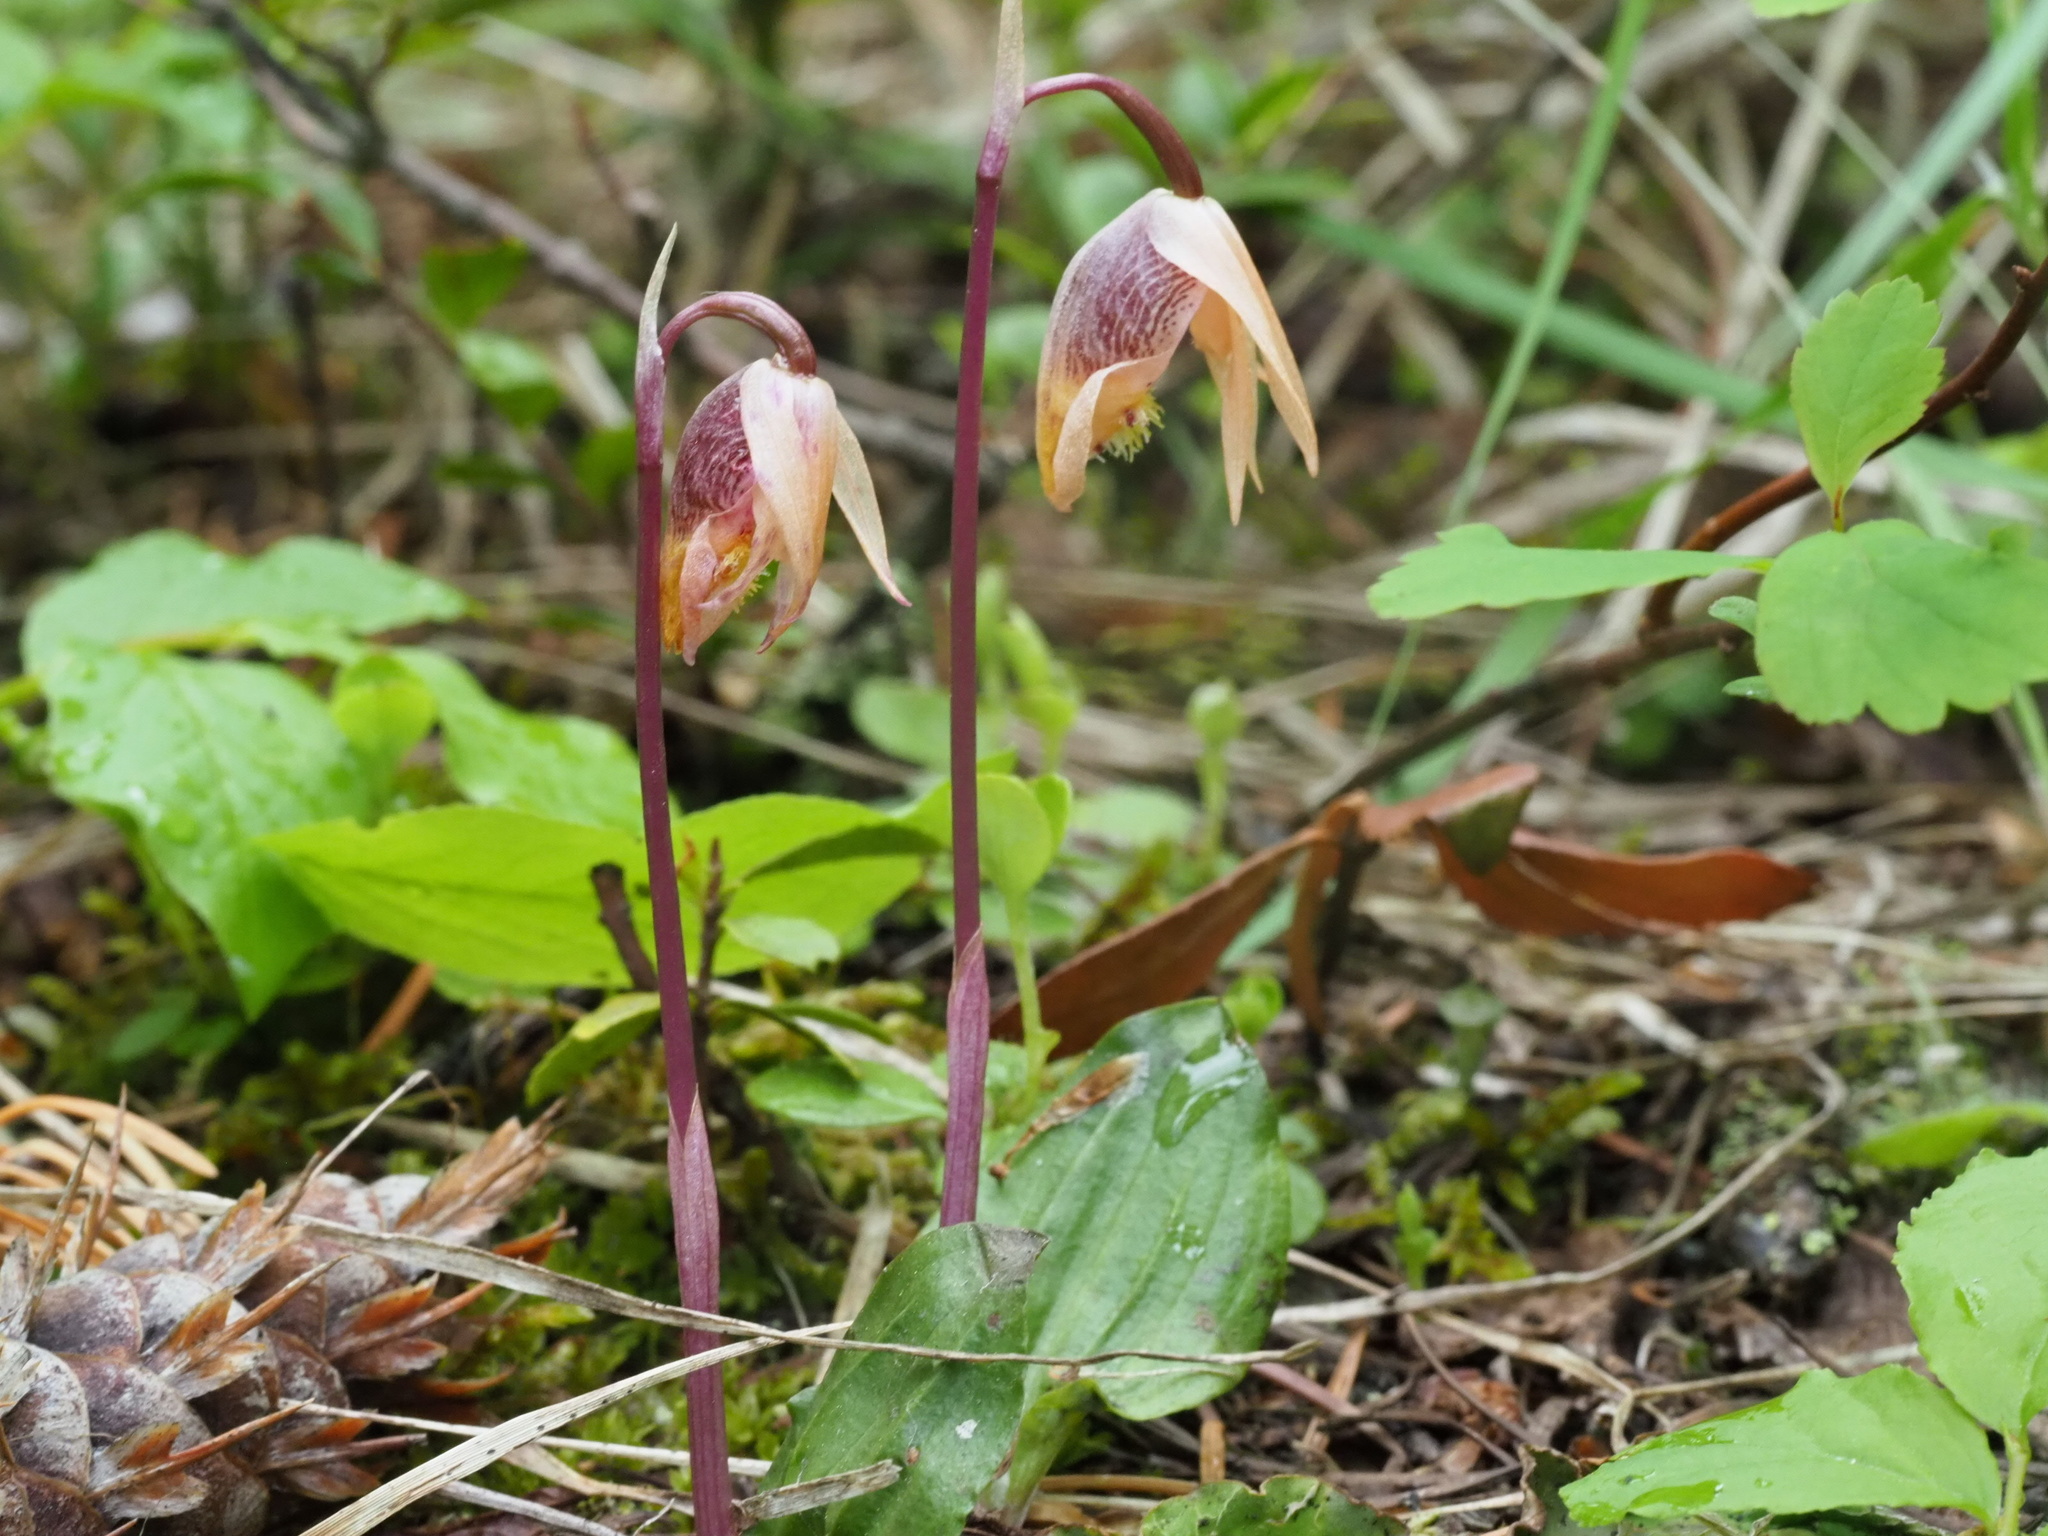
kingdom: Plantae
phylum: Tracheophyta
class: Liliopsida
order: Asparagales
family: Orchidaceae
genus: Calypso
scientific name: Calypso bulbosa
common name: Calypso
